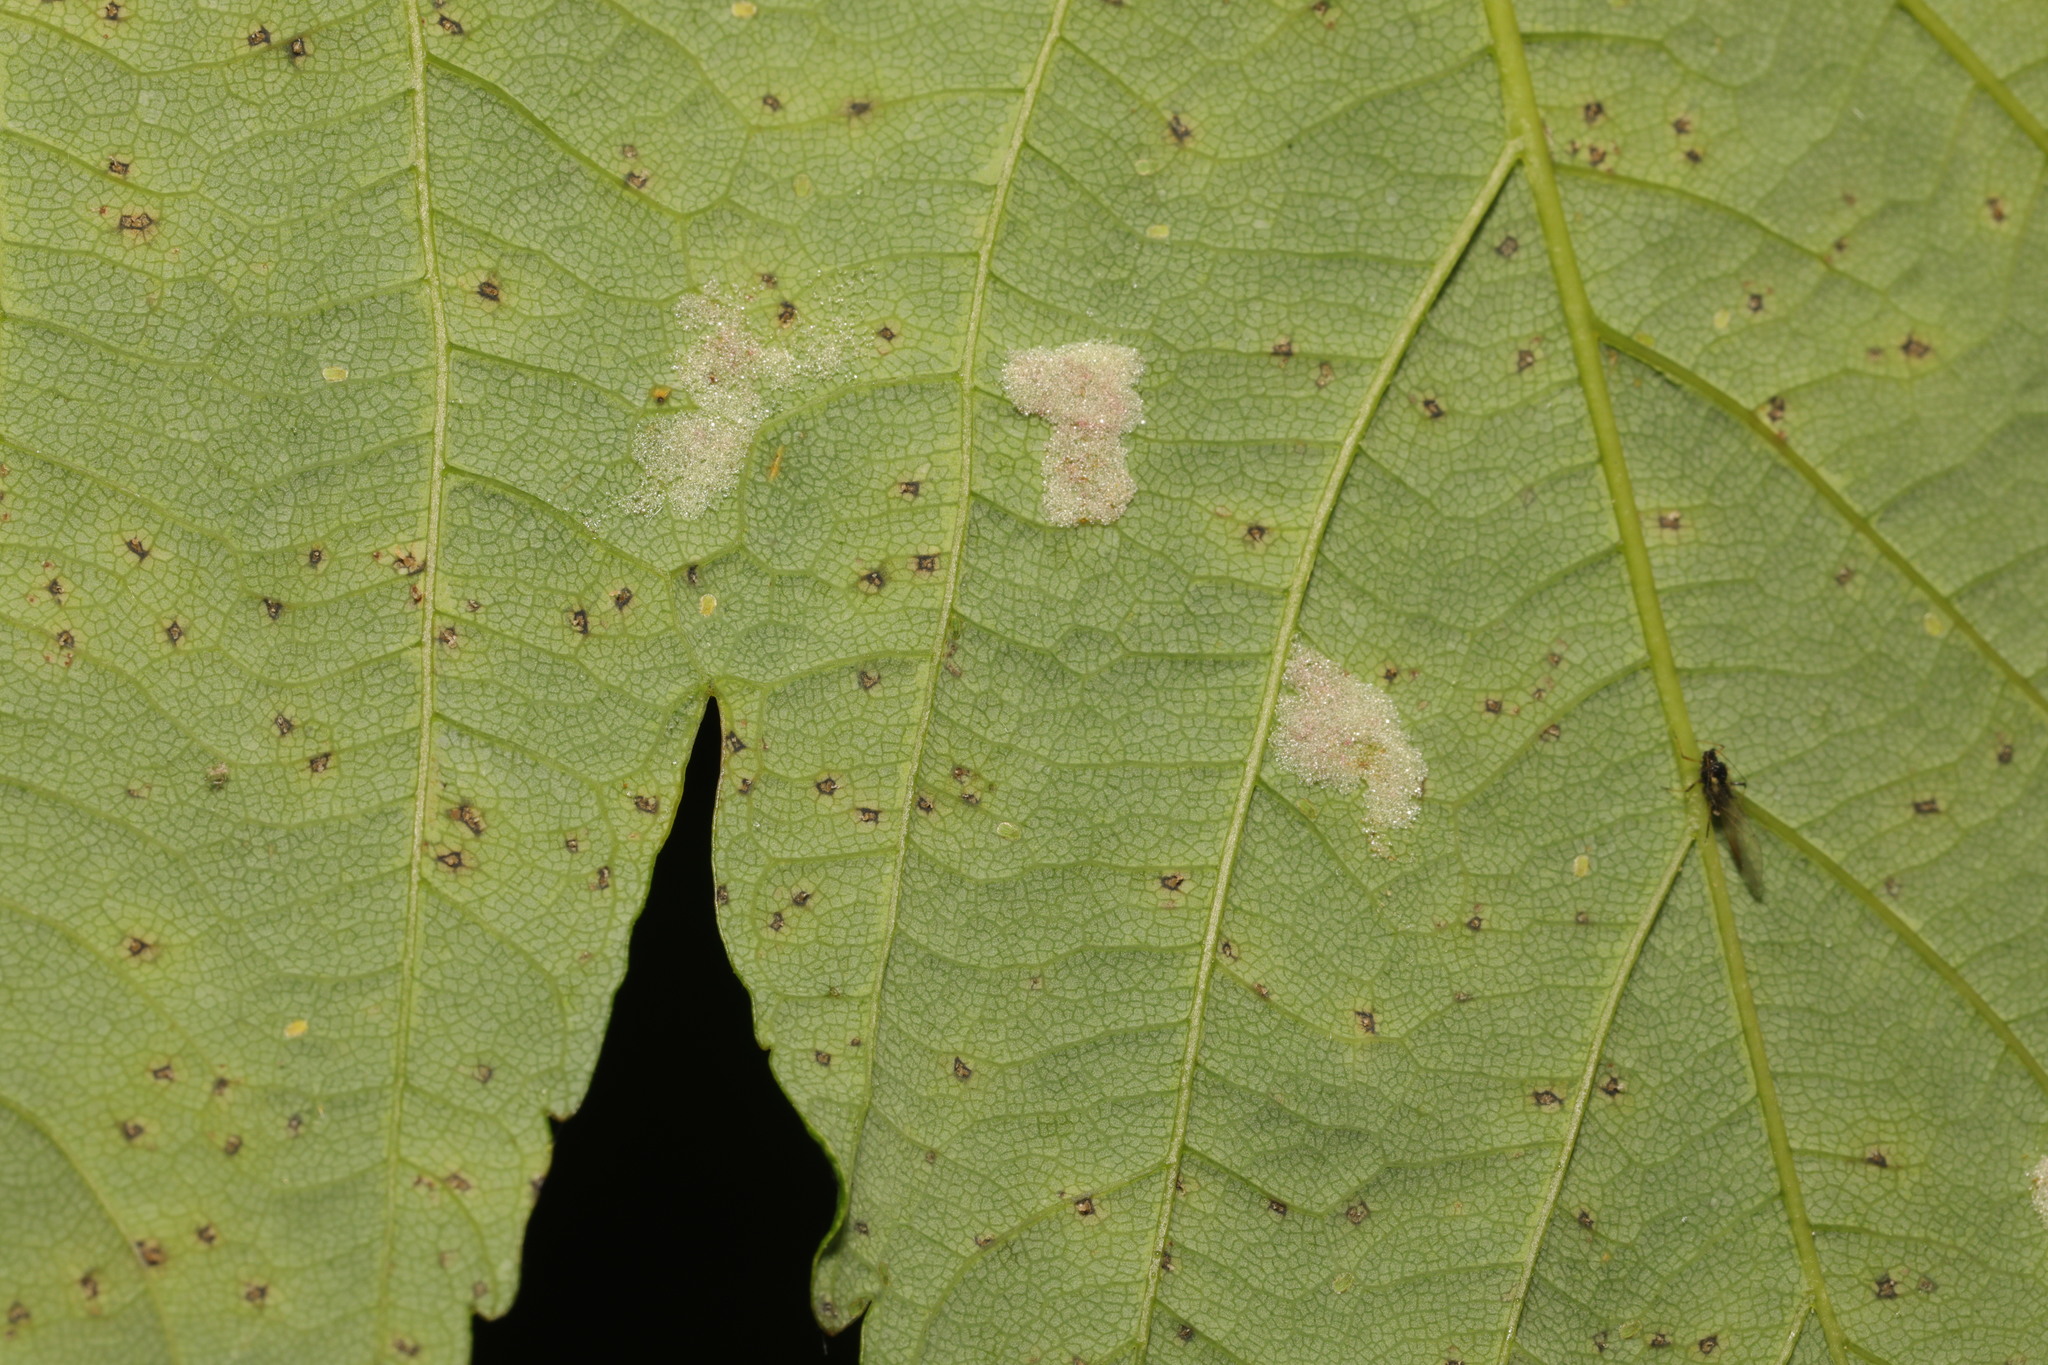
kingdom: Animalia
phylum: Arthropoda
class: Arachnida
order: Trombidiformes
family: Eriophyidae
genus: Aceria
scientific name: Aceria pseudoplatani
